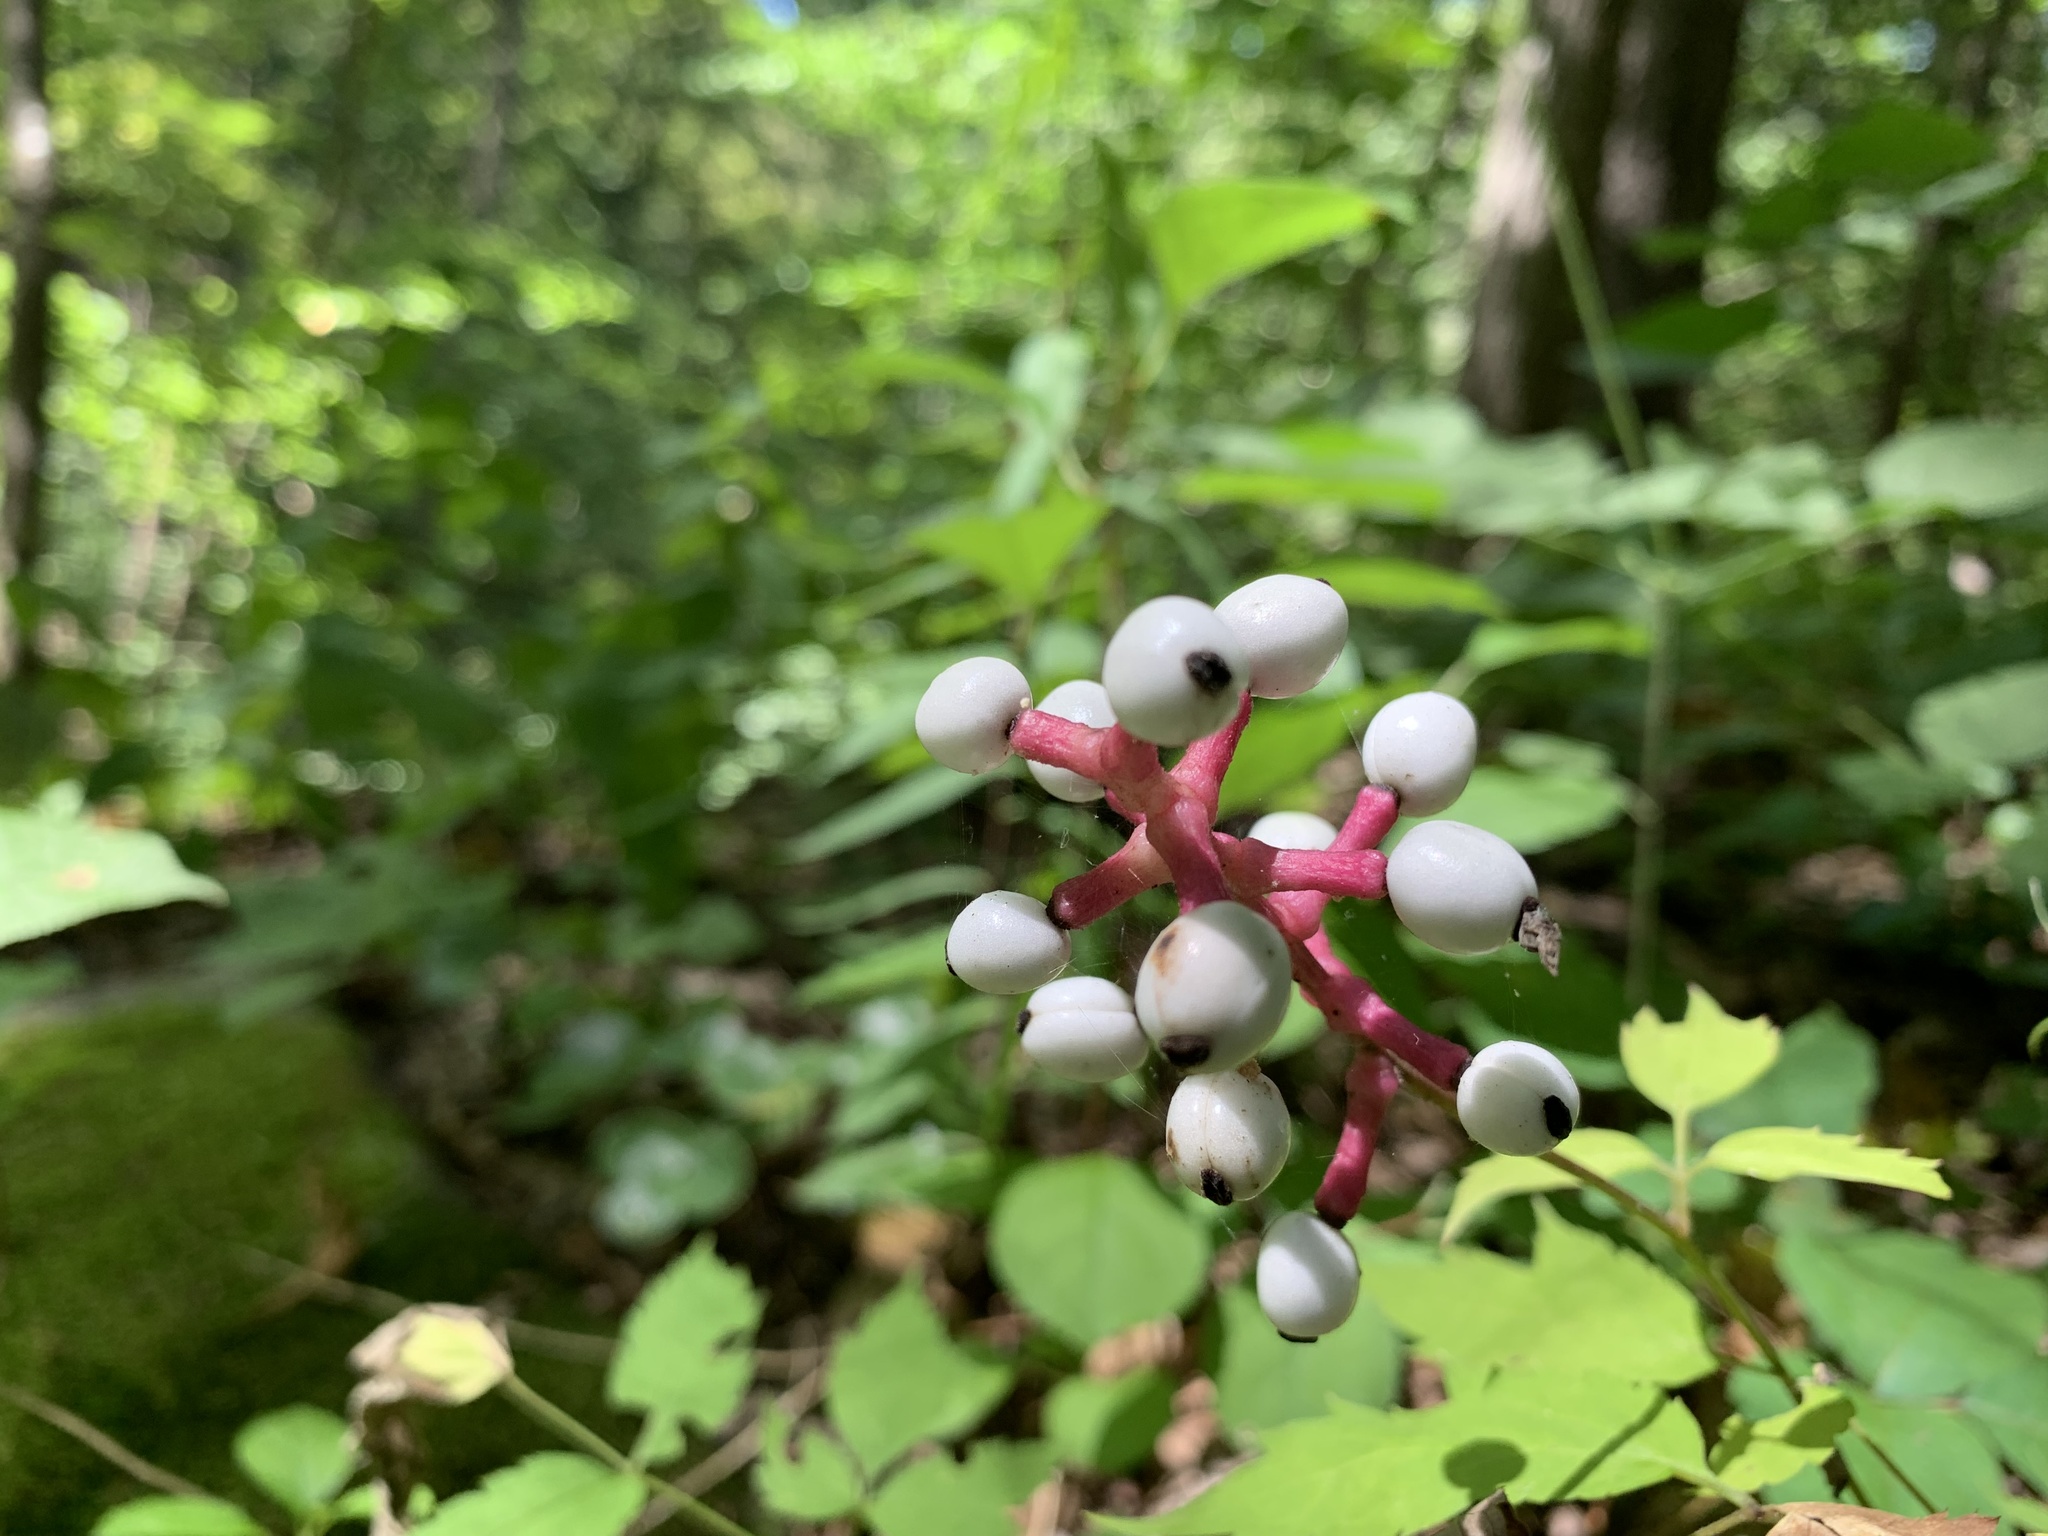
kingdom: Plantae
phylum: Tracheophyta
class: Magnoliopsida
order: Ranunculales
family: Ranunculaceae
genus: Actaea
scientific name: Actaea pachypoda
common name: Doll's-eyes
